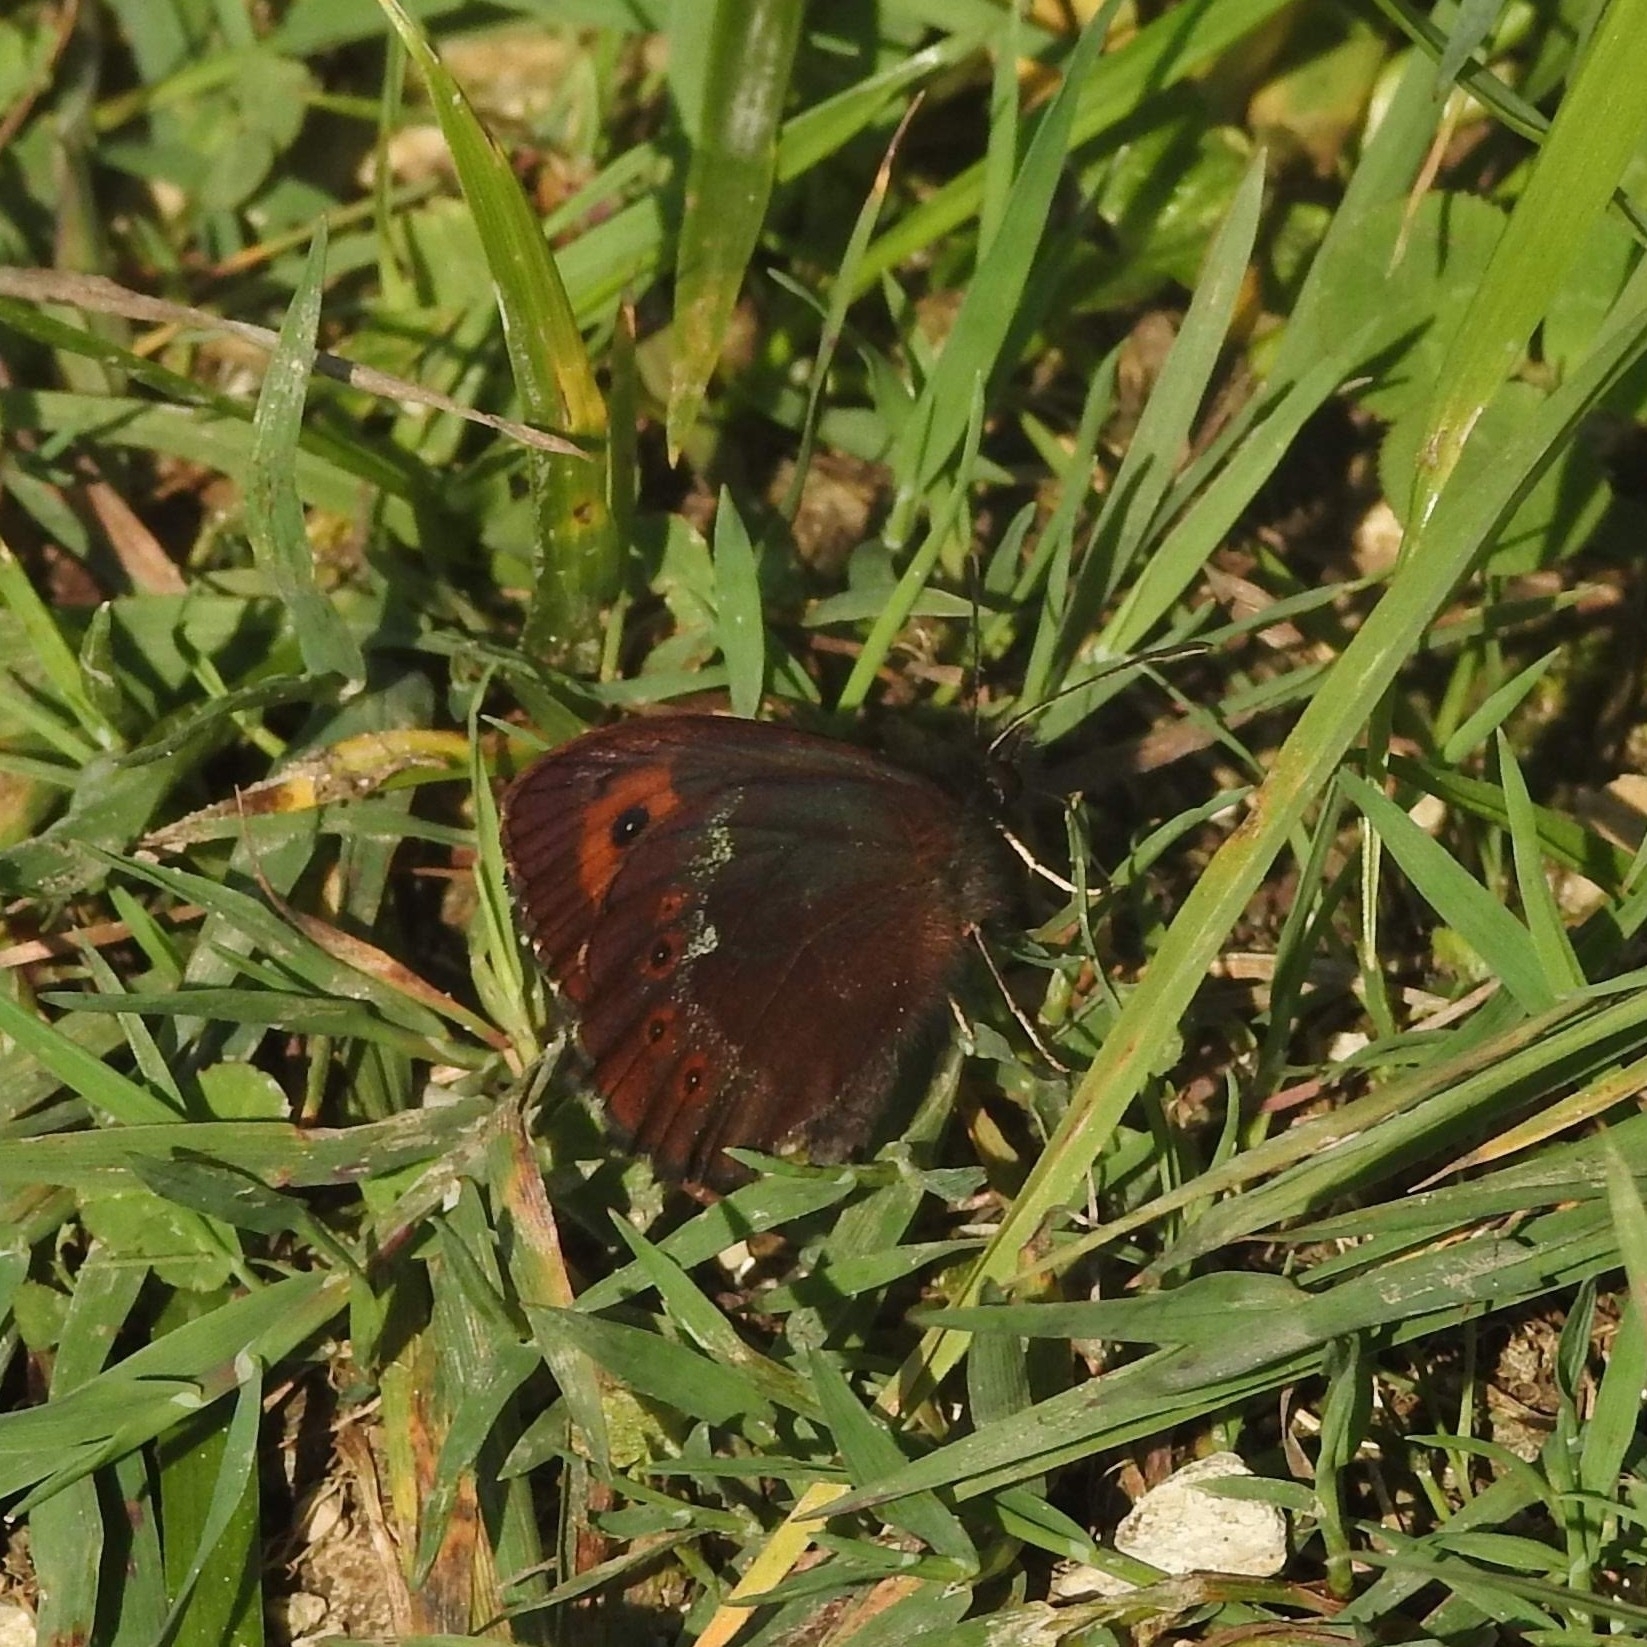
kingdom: Animalia
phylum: Arthropoda
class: Insecta
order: Lepidoptera
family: Nymphalidae
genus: Erebia
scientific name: Erebia ligea
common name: Arran brown
